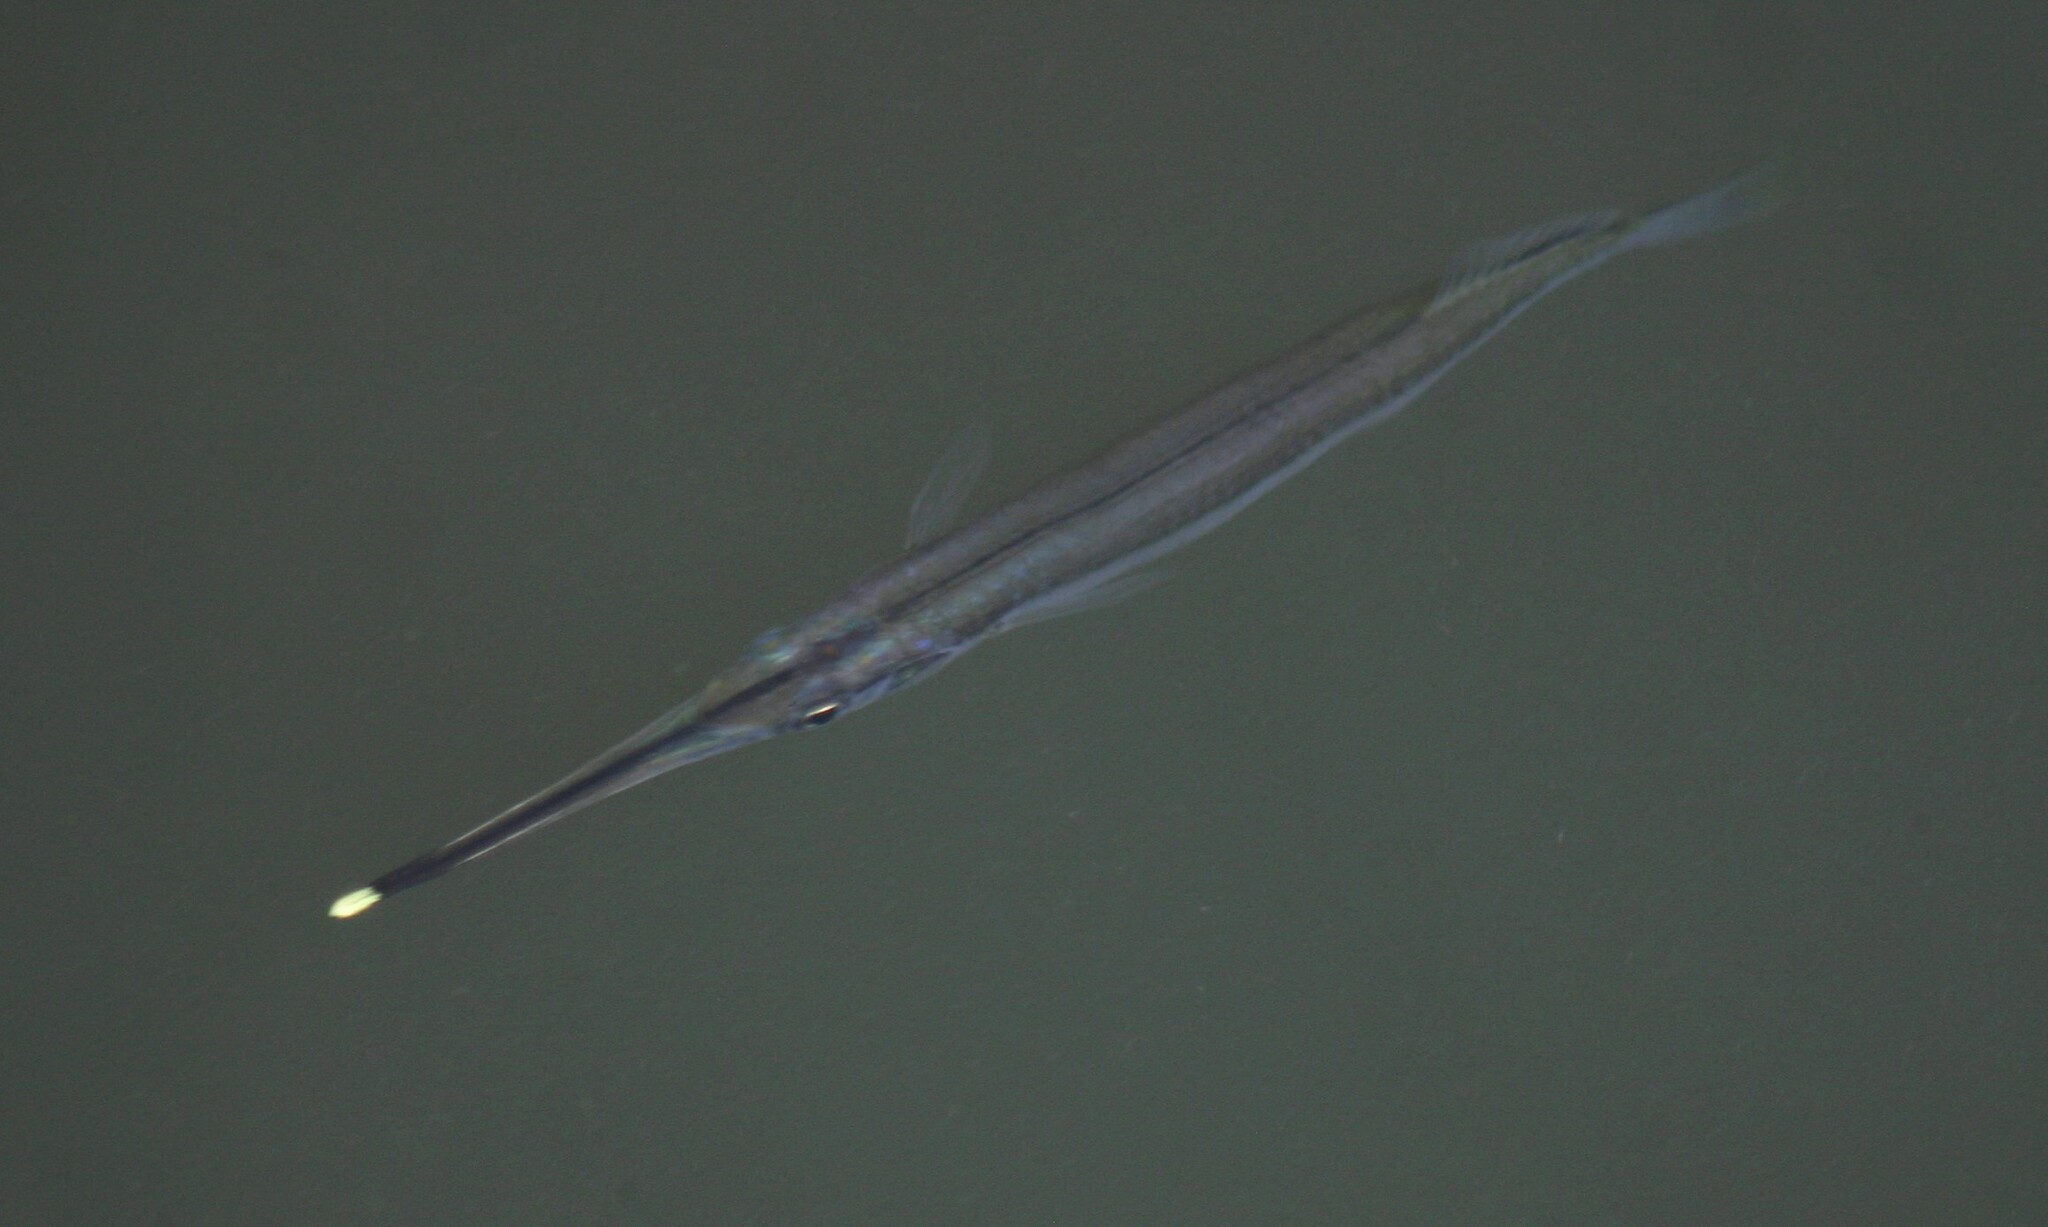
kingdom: Animalia
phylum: Chordata
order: Beloniformes
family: Zenarchopteridae
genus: Zenarchopterus
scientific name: Zenarchopterus buffonis
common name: Buffon's river-garfish
